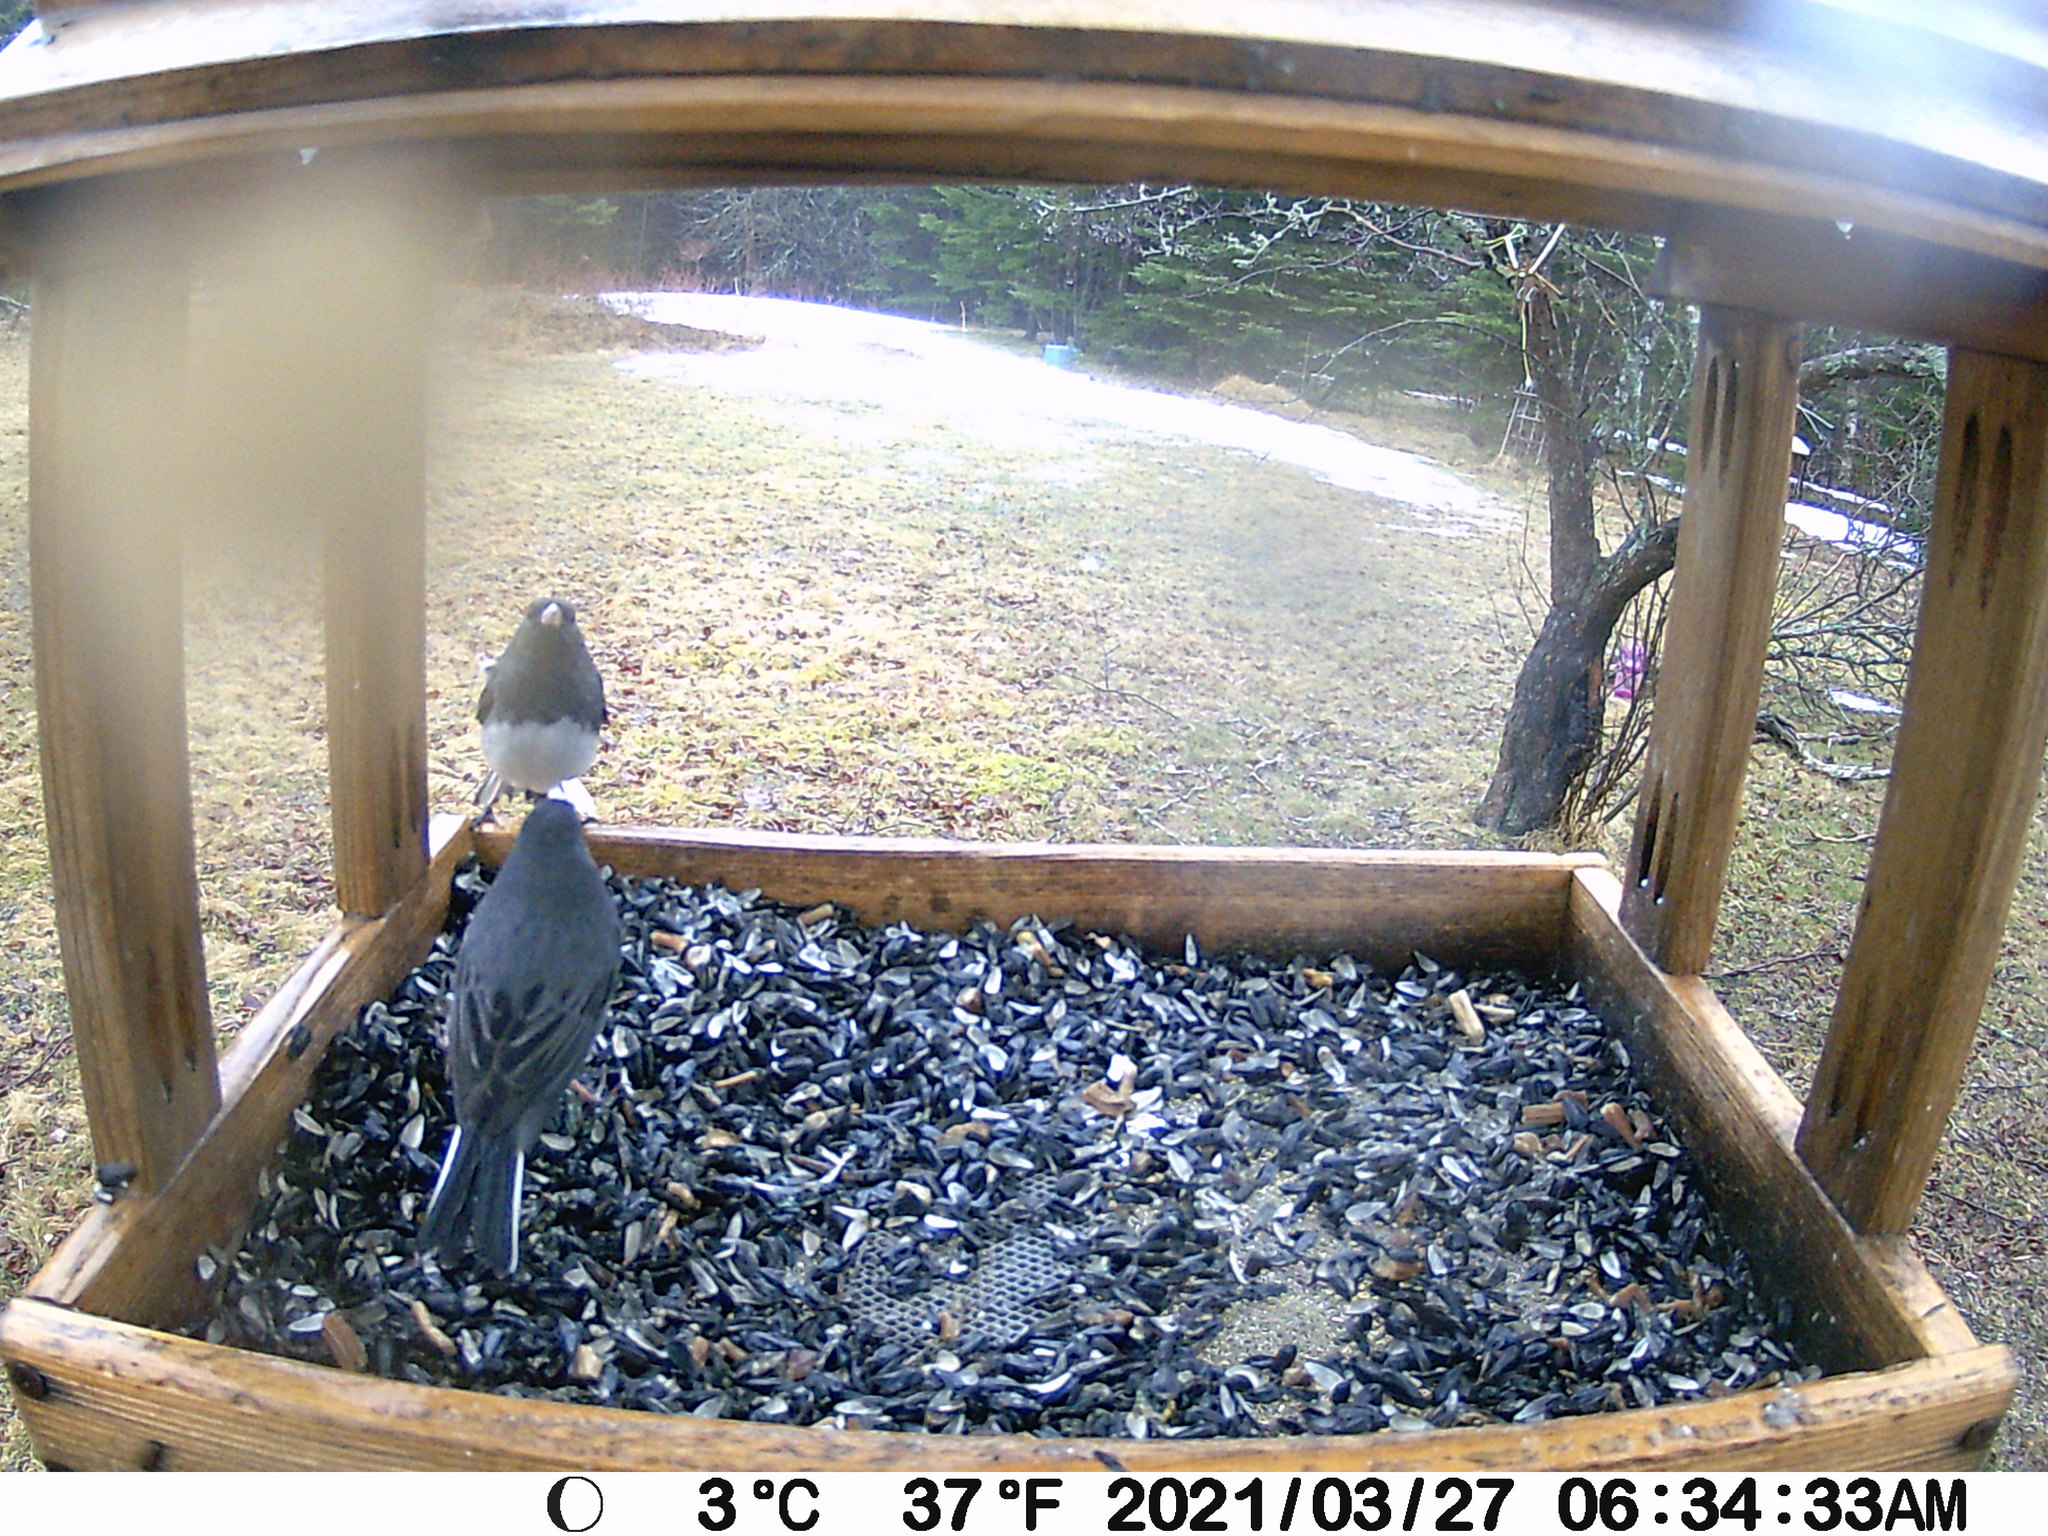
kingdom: Animalia
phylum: Chordata
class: Aves
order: Passeriformes
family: Passerellidae
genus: Junco
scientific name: Junco hyemalis
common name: Dark-eyed junco
